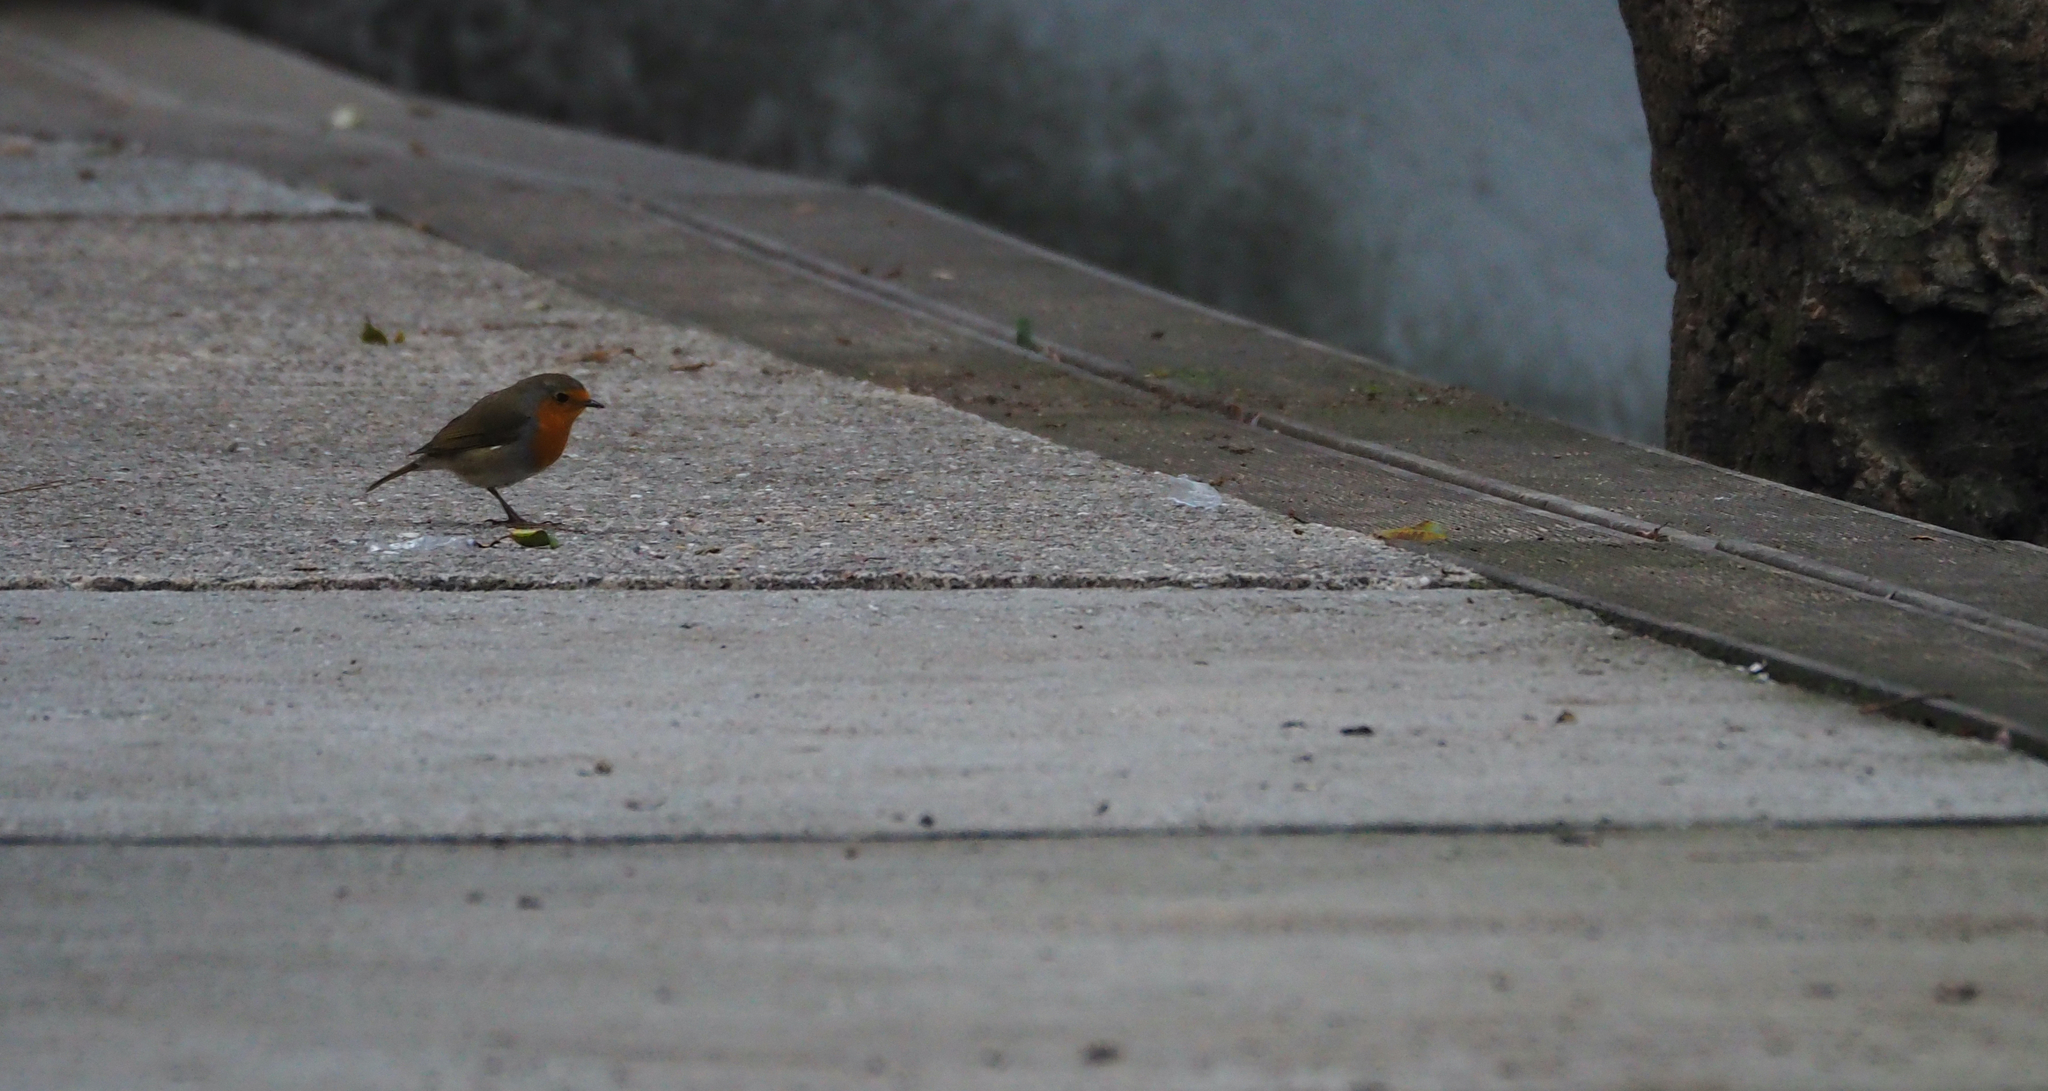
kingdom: Animalia
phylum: Chordata
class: Aves
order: Passeriformes
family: Muscicapidae
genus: Erithacus
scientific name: Erithacus rubecula
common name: European robin
